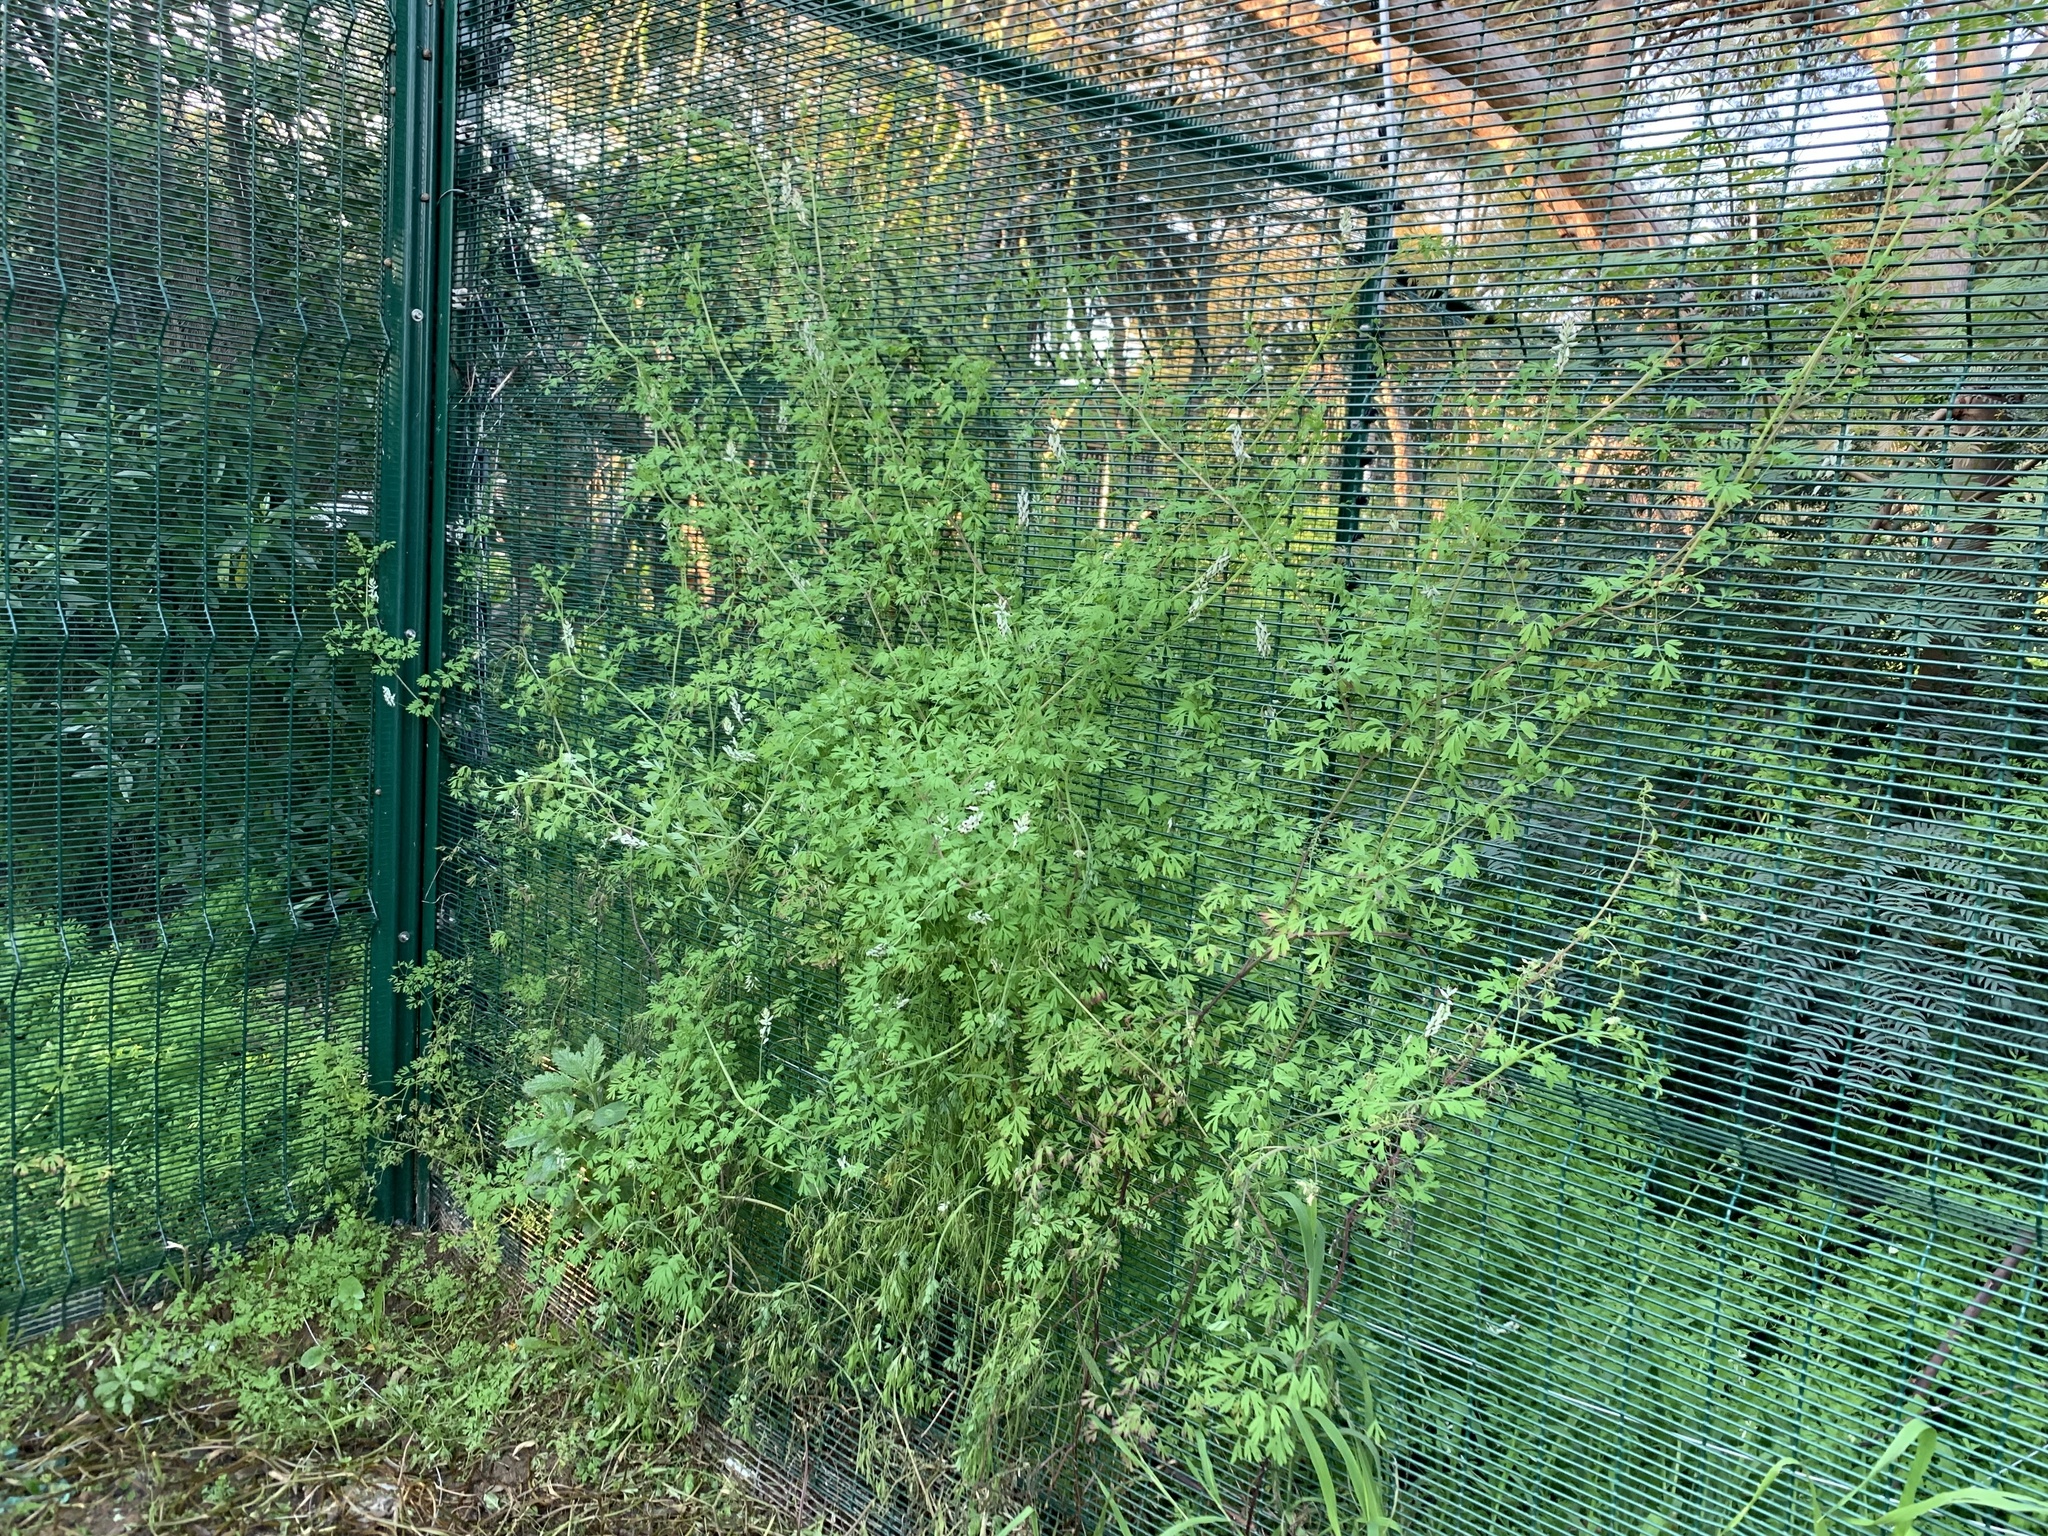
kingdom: Plantae
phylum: Tracheophyta
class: Magnoliopsida
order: Ranunculales
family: Papaveraceae
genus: Fumaria
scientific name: Fumaria capreolata
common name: White ramping-fumitory
